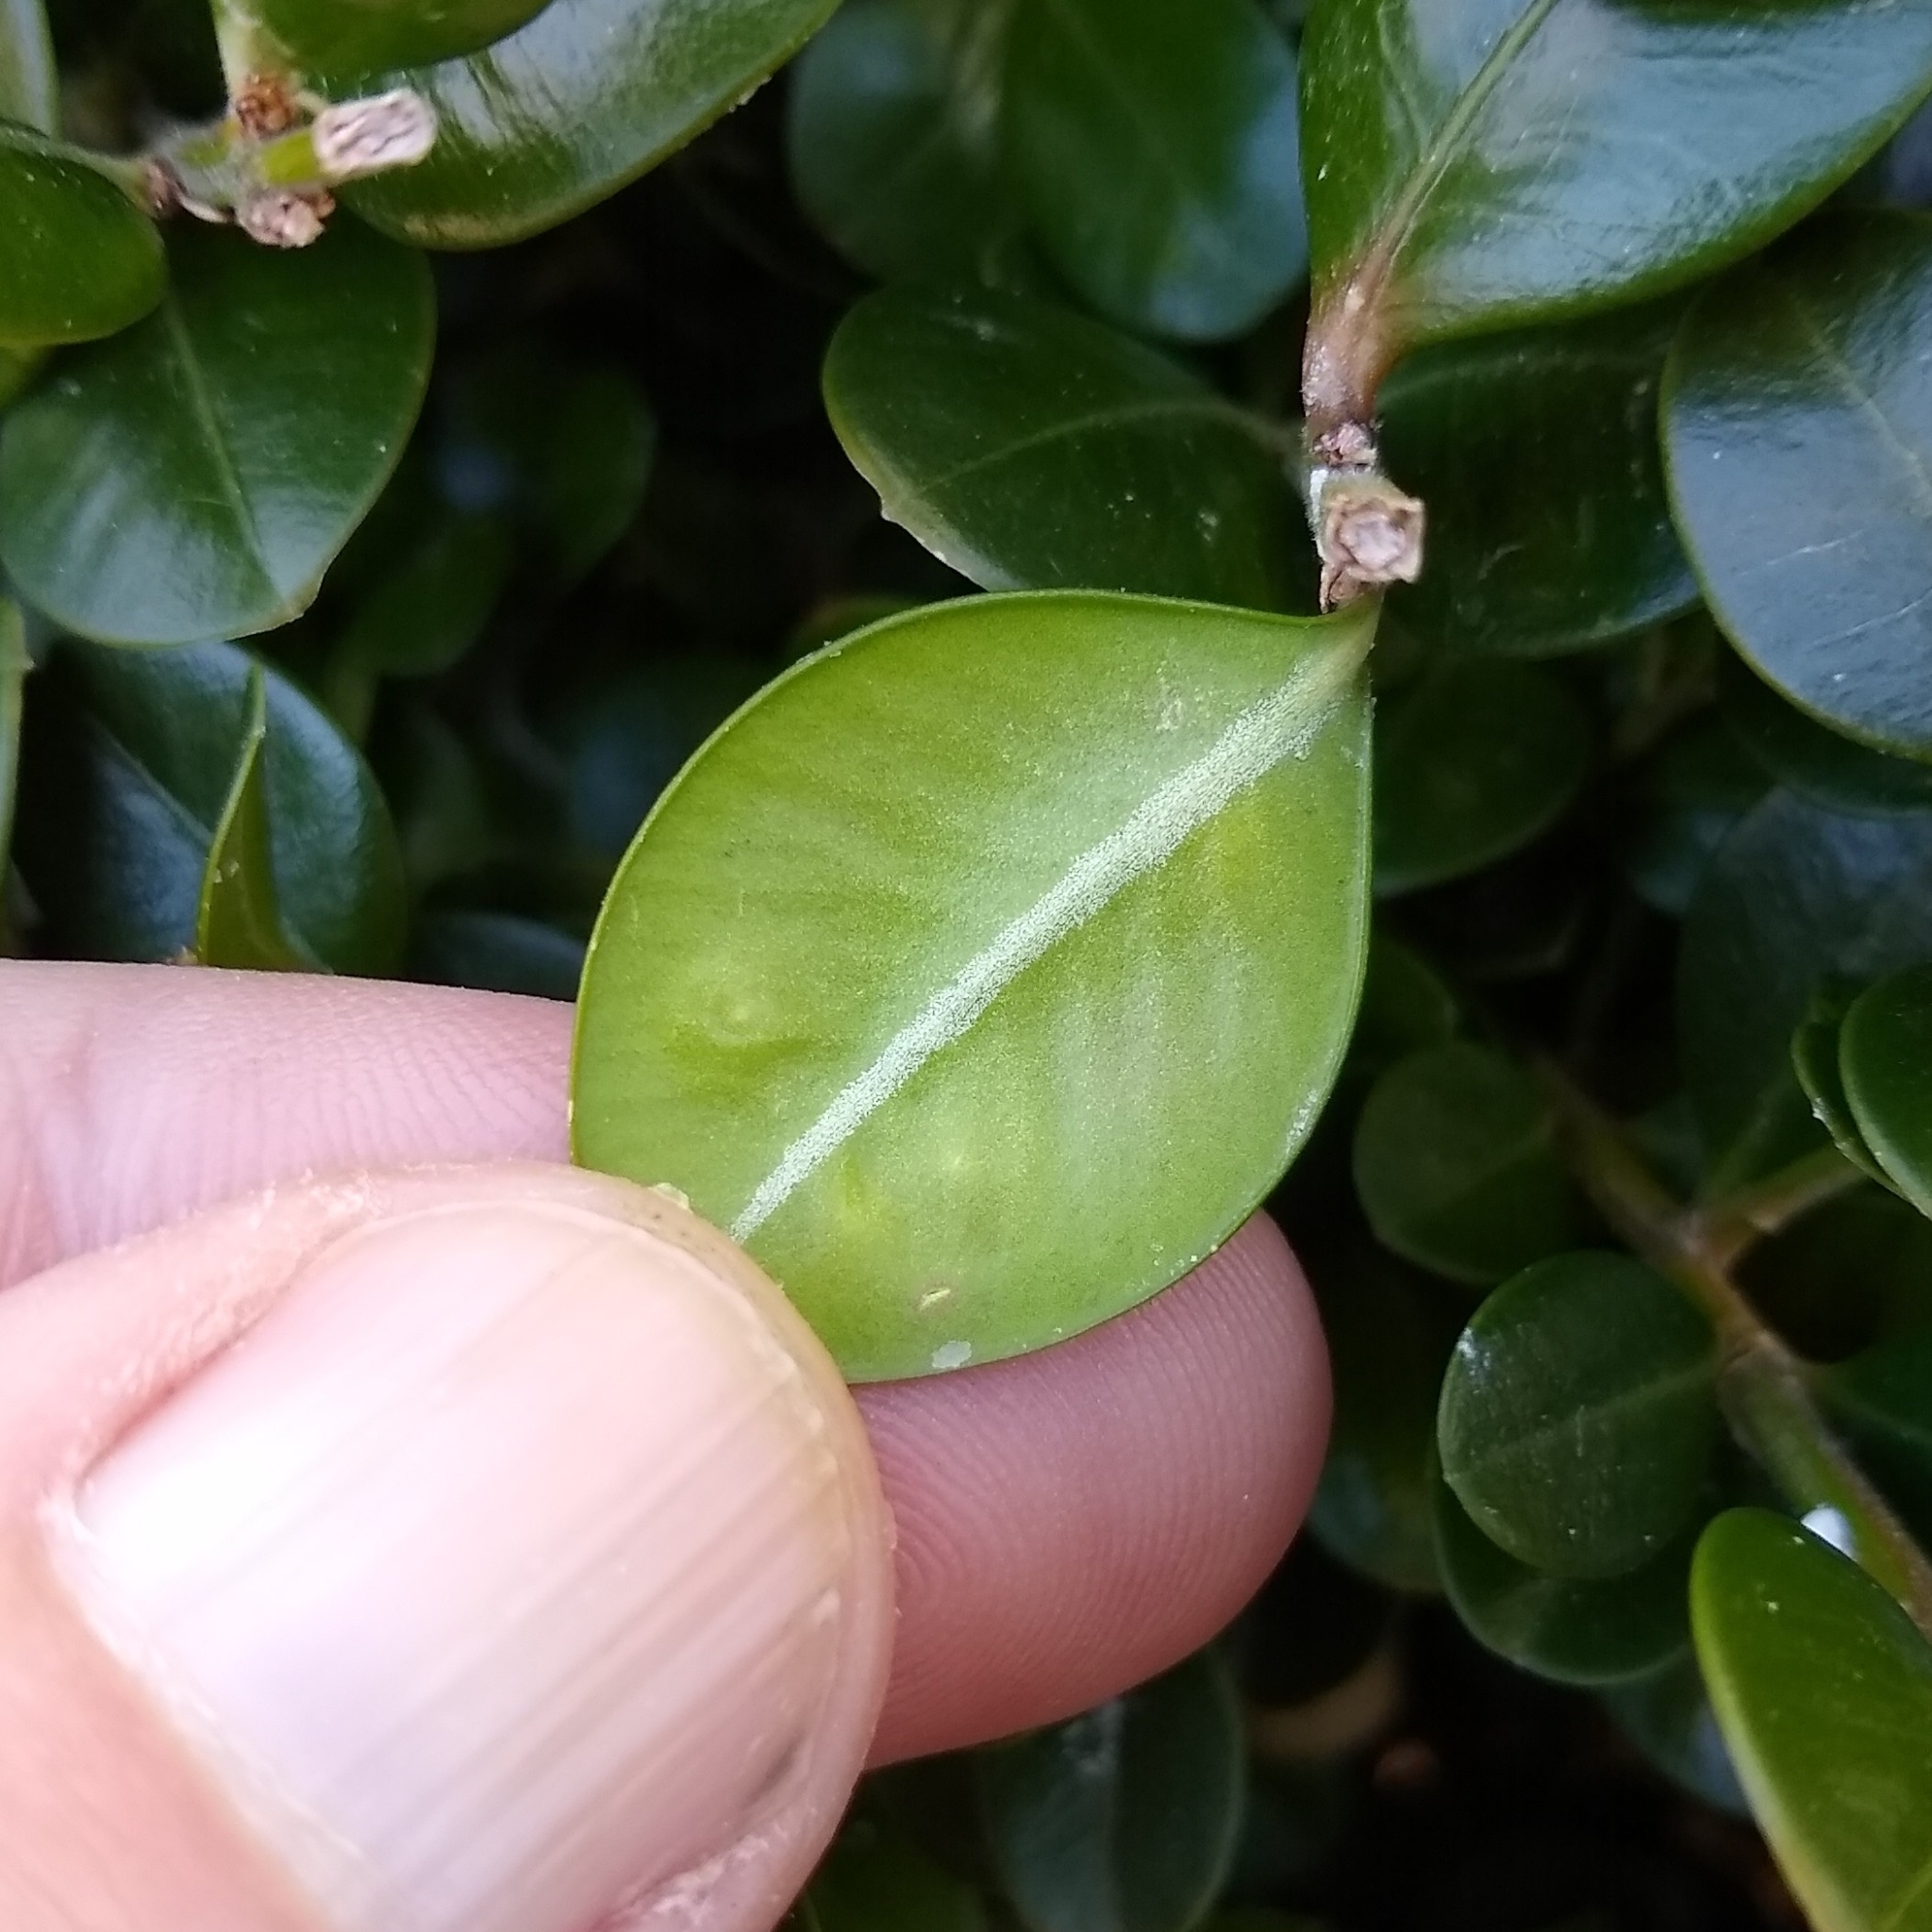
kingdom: Animalia
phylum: Arthropoda
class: Insecta
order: Diptera
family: Cecidomyiidae
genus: Monarthropalpus
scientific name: Monarthropalpus flavus
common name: Boxwood leafminer
